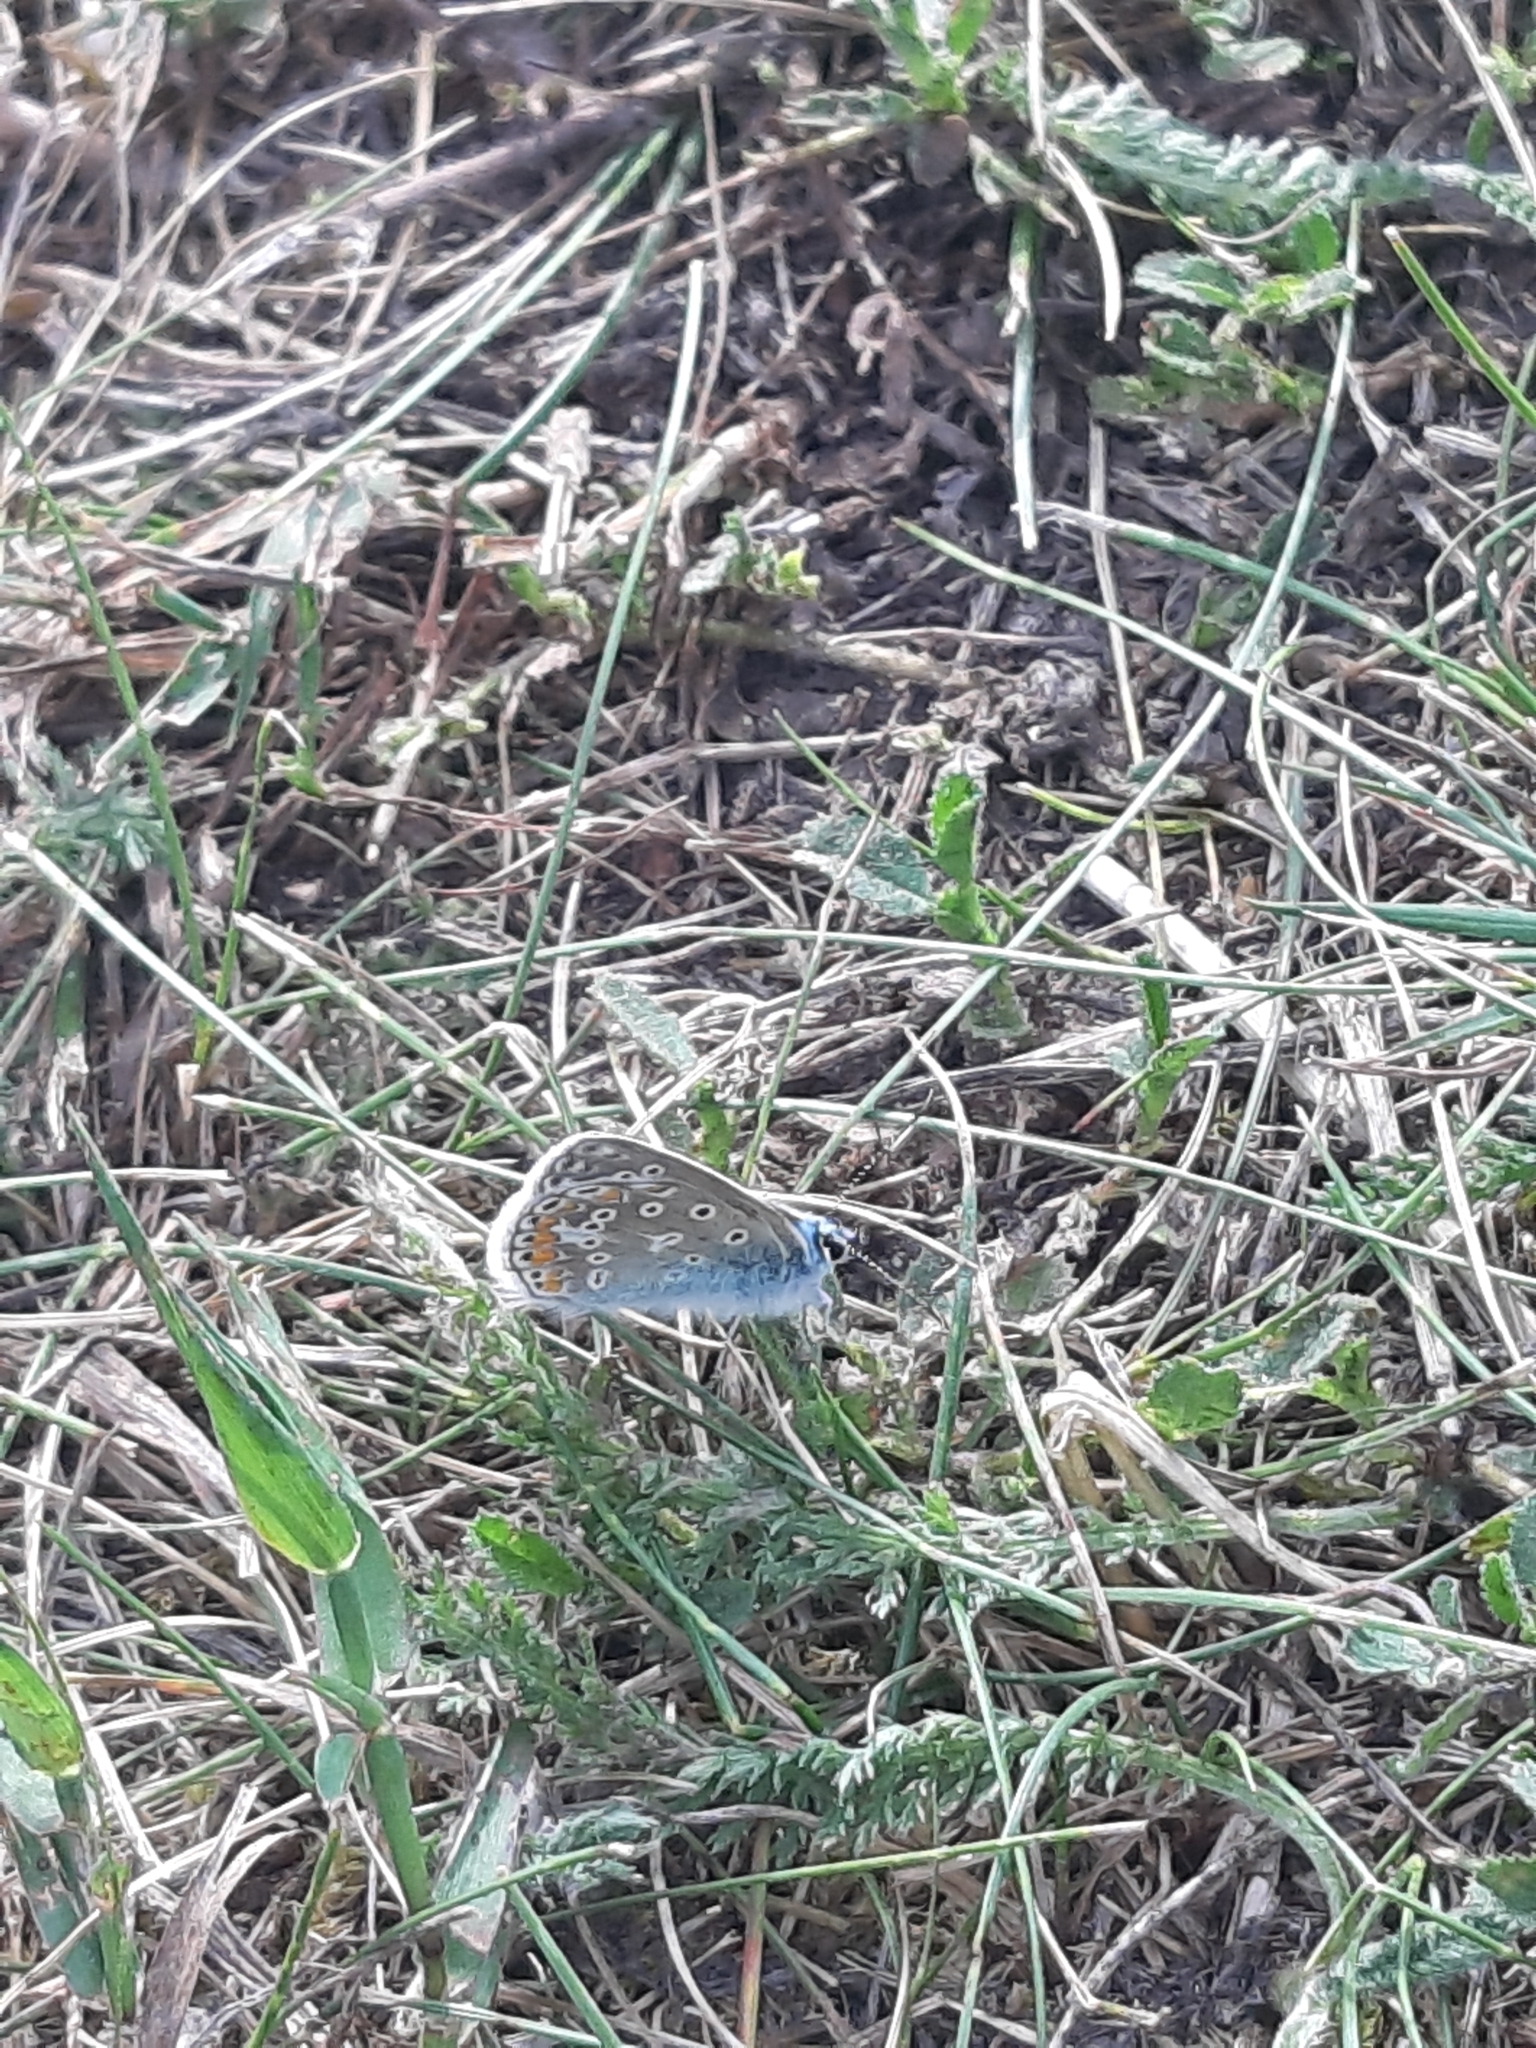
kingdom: Animalia
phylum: Arthropoda
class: Insecta
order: Lepidoptera
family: Lycaenidae
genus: Polyommatus
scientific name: Polyommatus icarus
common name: Common blue
